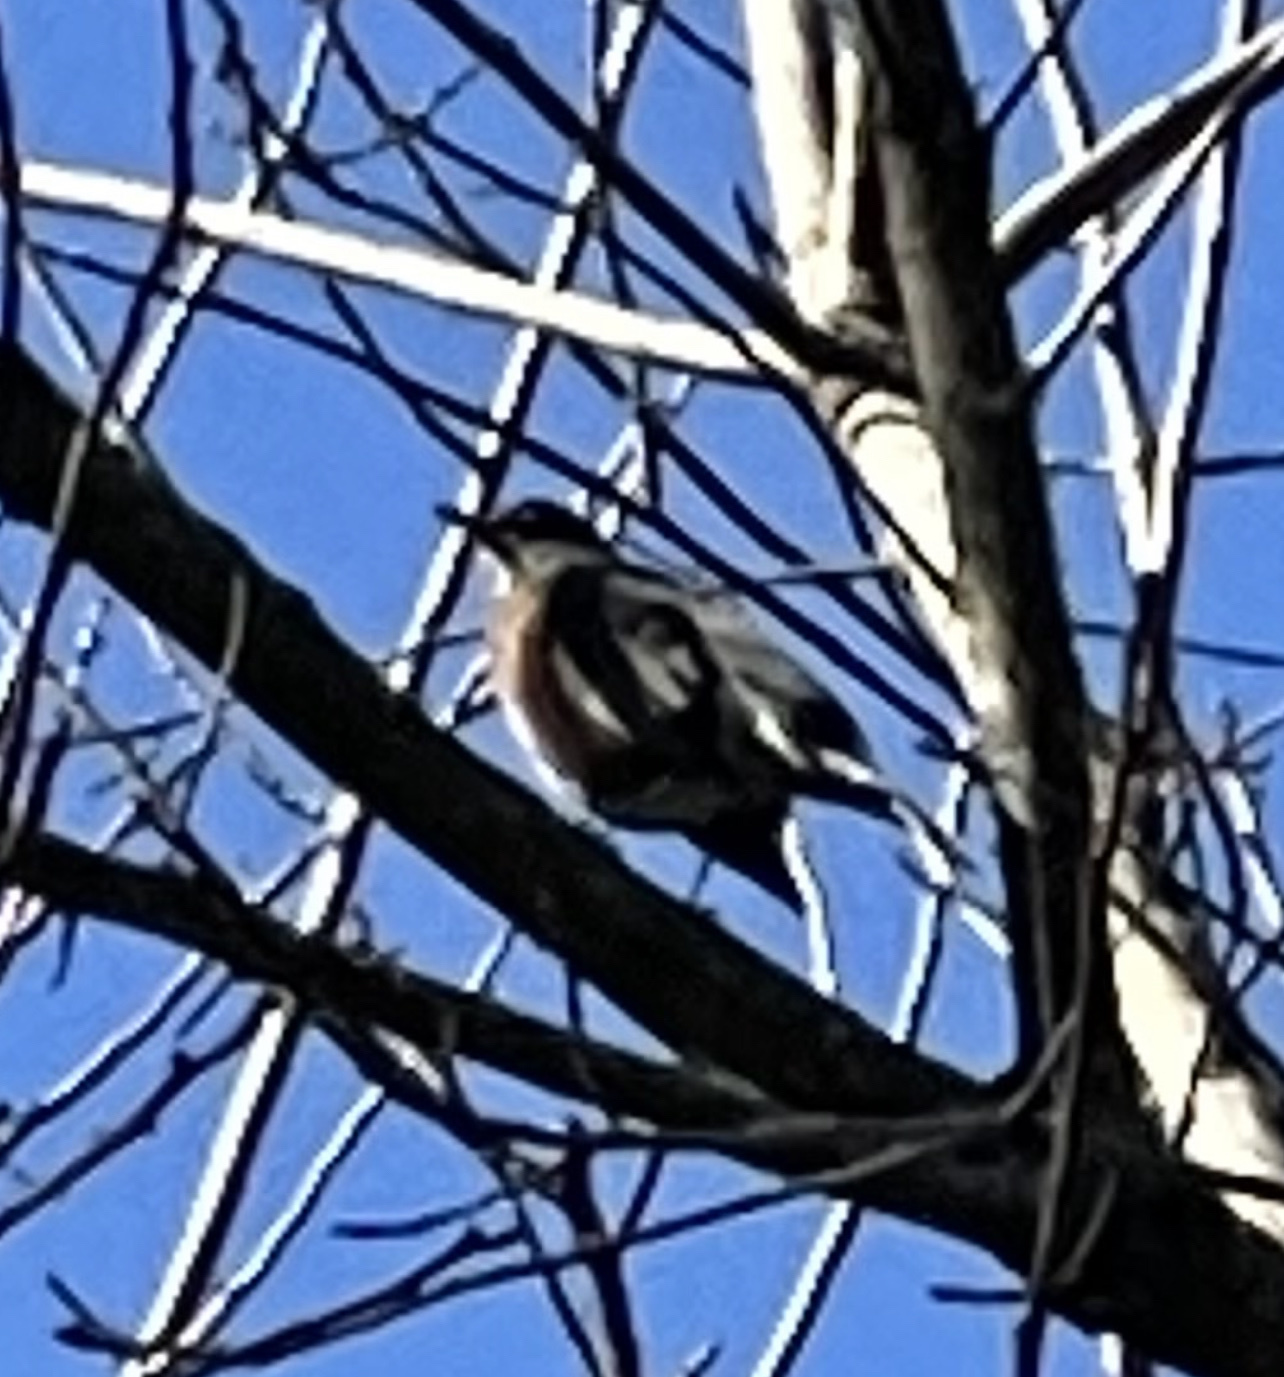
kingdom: Animalia
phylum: Chordata
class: Aves
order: Passeriformes
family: Turdidae
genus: Turdus
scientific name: Turdus migratorius
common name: American robin
